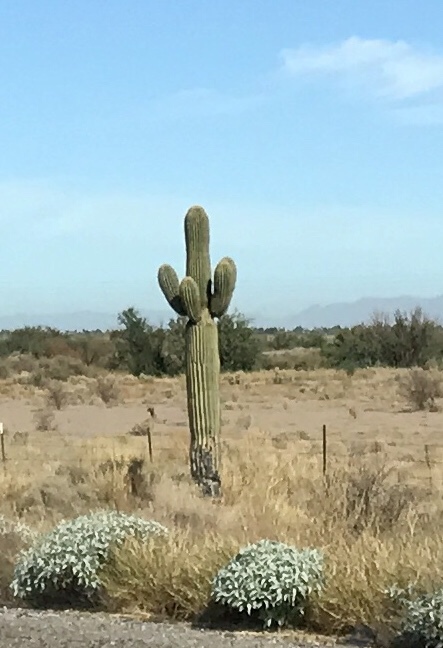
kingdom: Plantae
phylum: Tracheophyta
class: Magnoliopsida
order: Caryophyllales
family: Cactaceae
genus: Carnegiea
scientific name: Carnegiea gigantea
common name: Saguaro
